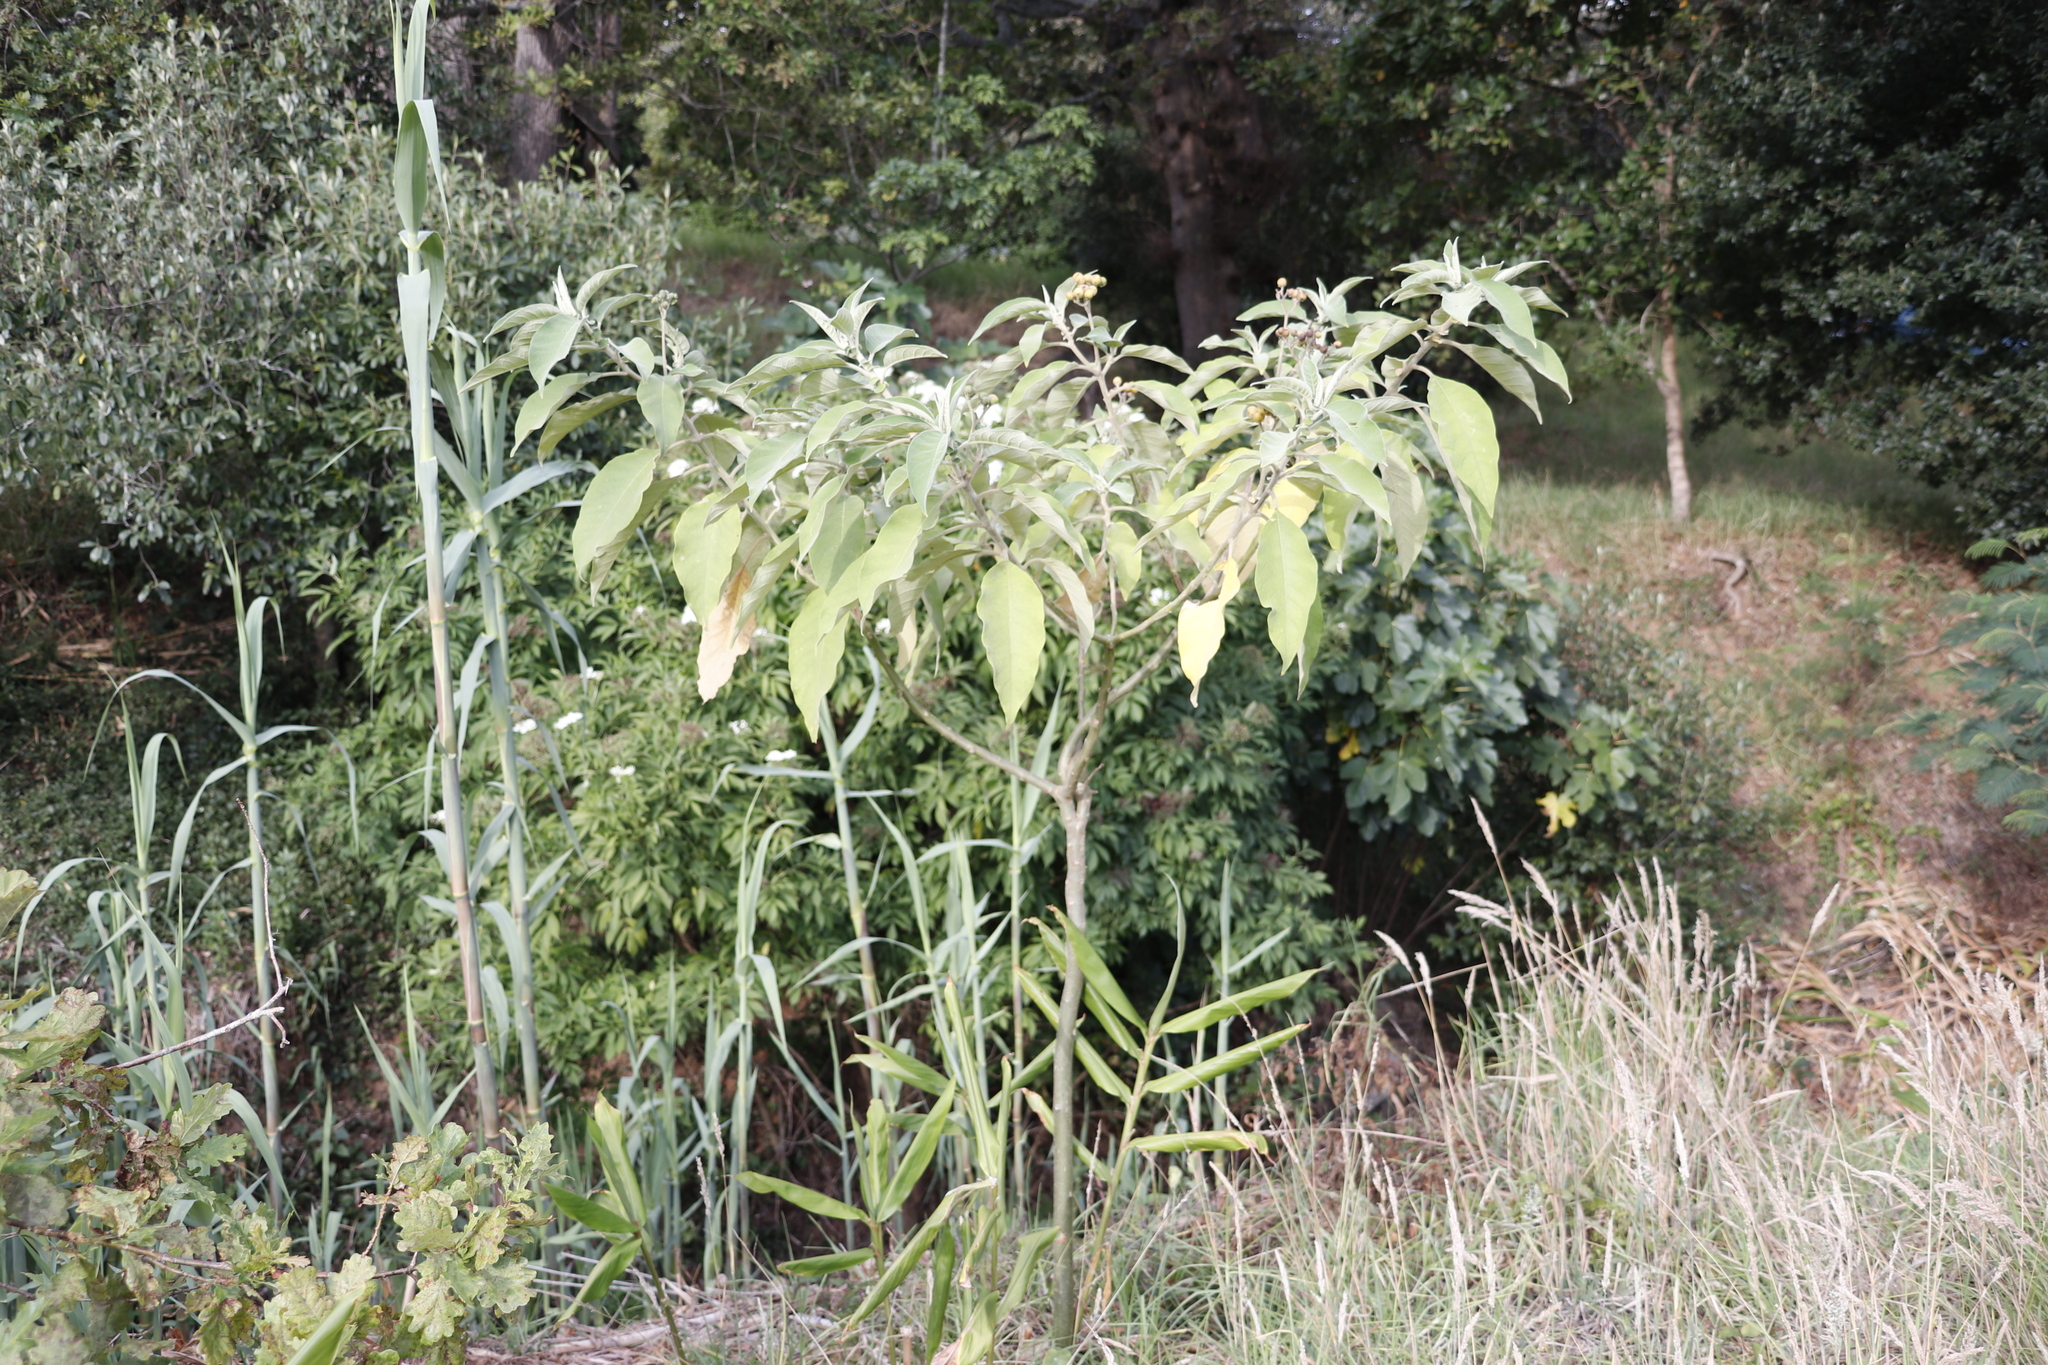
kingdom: Plantae
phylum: Tracheophyta
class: Magnoliopsida
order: Solanales
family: Solanaceae
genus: Solanum
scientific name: Solanum mauritianum
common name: Earleaf nightshade
